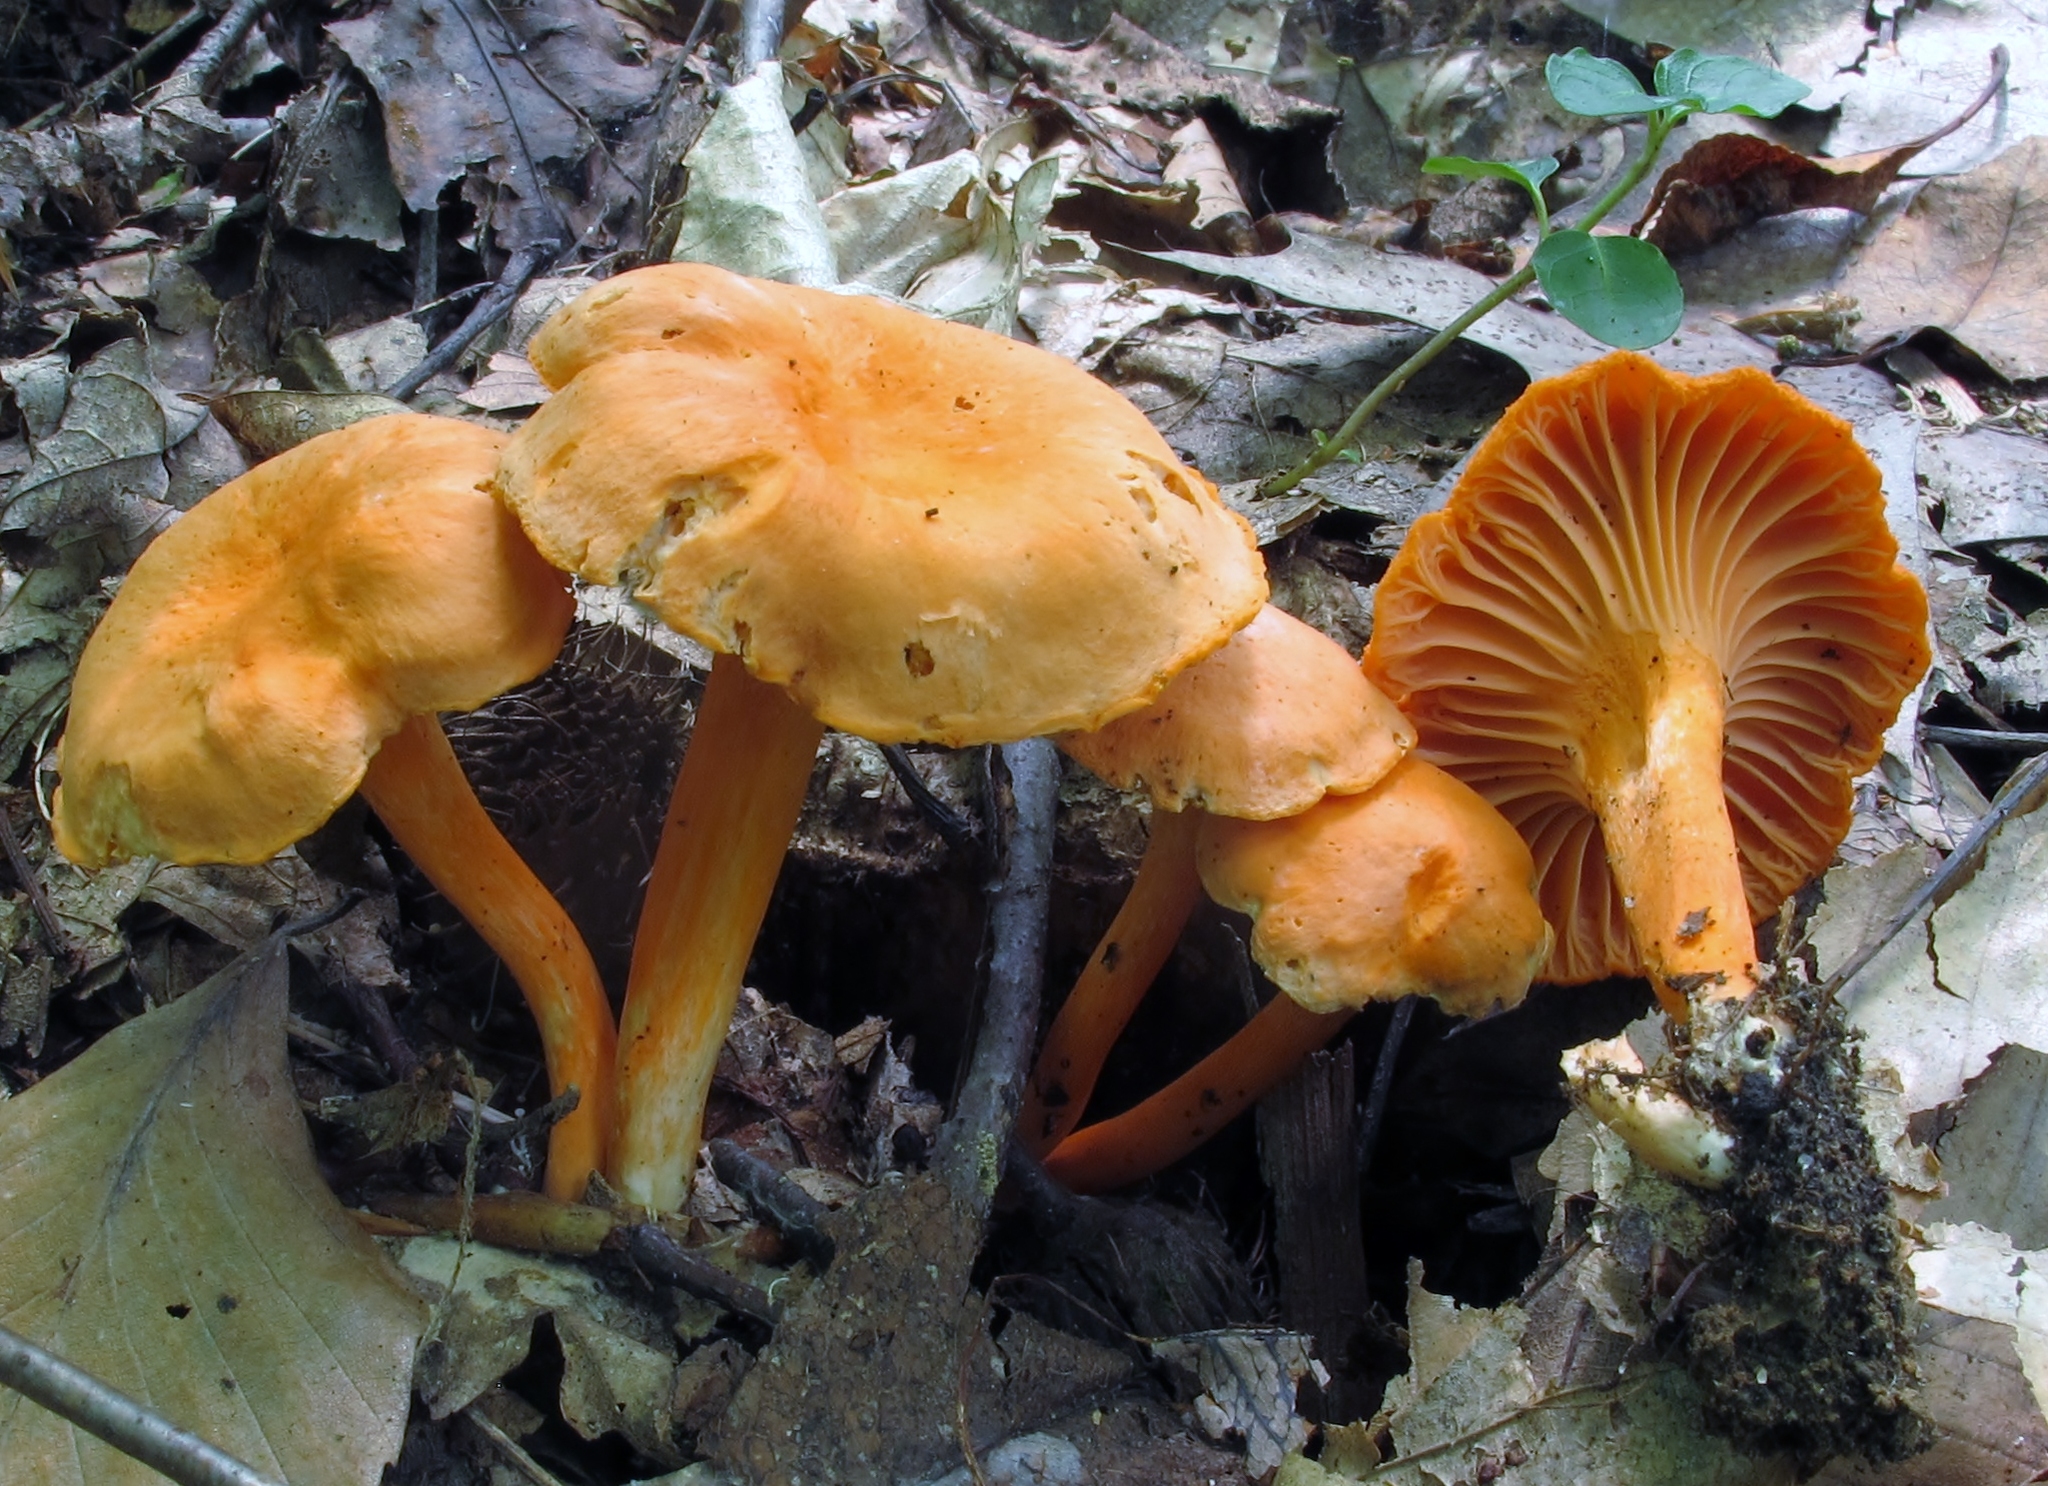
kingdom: Fungi
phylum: Basidiomycota
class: Agaricomycetes
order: Cantharellales
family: Hydnaceae
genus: Cantharellus
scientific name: Cantharellus cinnabarinus
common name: Cinnabar chanterelle
